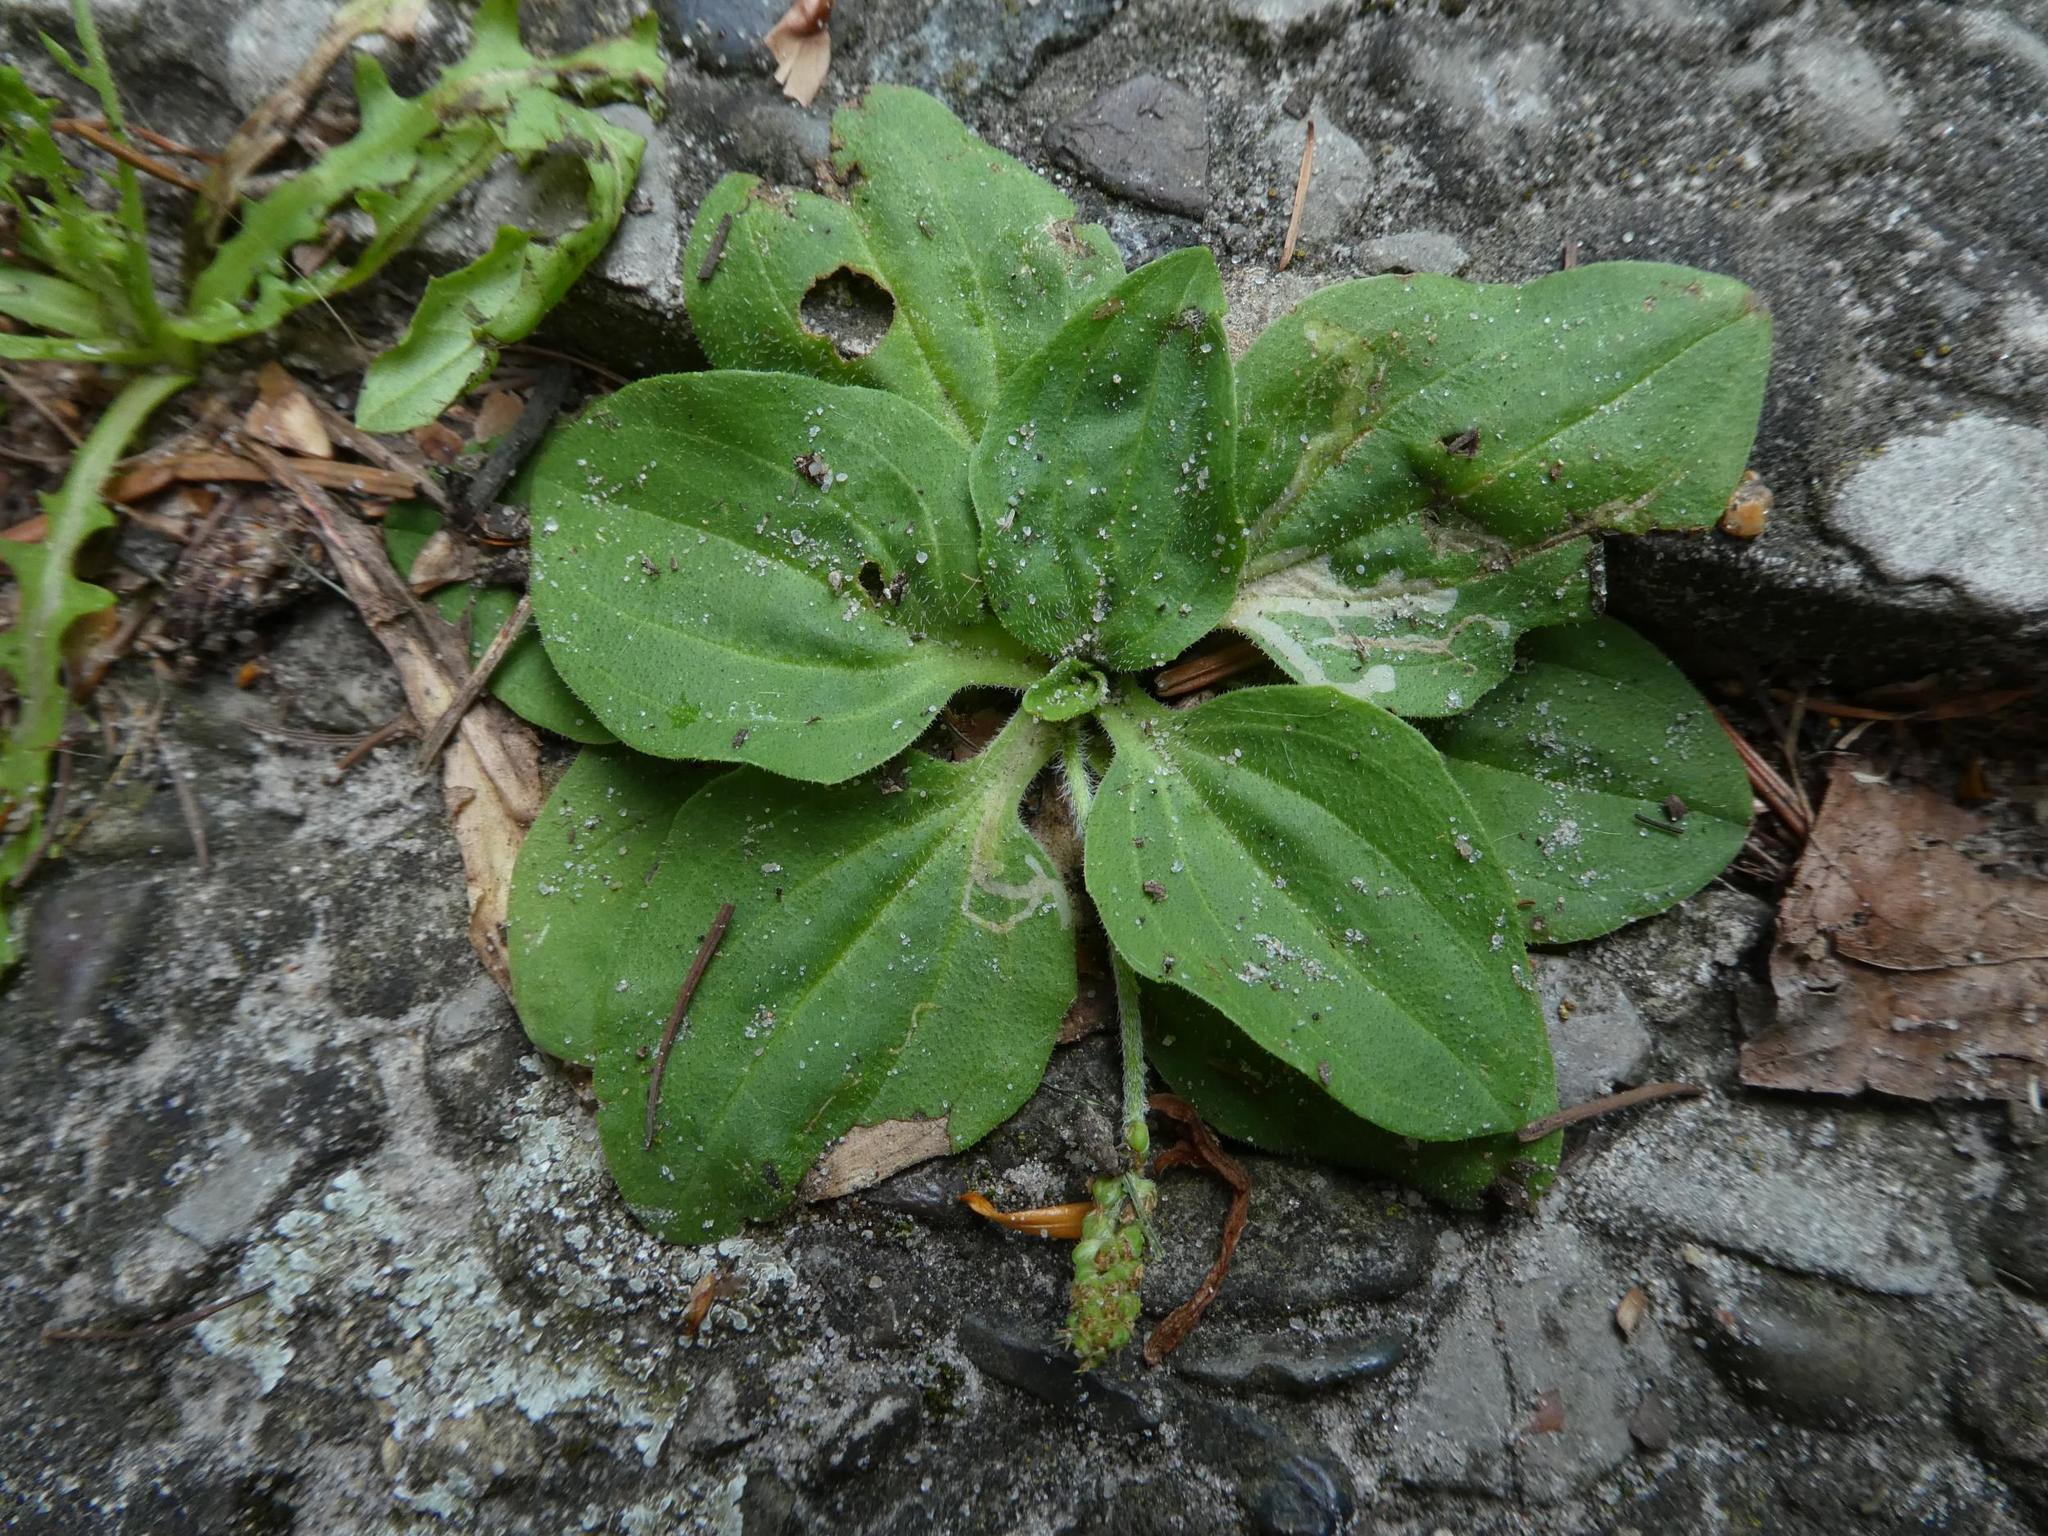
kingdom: Plantae
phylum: Tracheophyta
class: Magnoliopsida
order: Lamiales
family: Plantaginaceae
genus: Plantago
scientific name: Plantago major
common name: Common plantain
